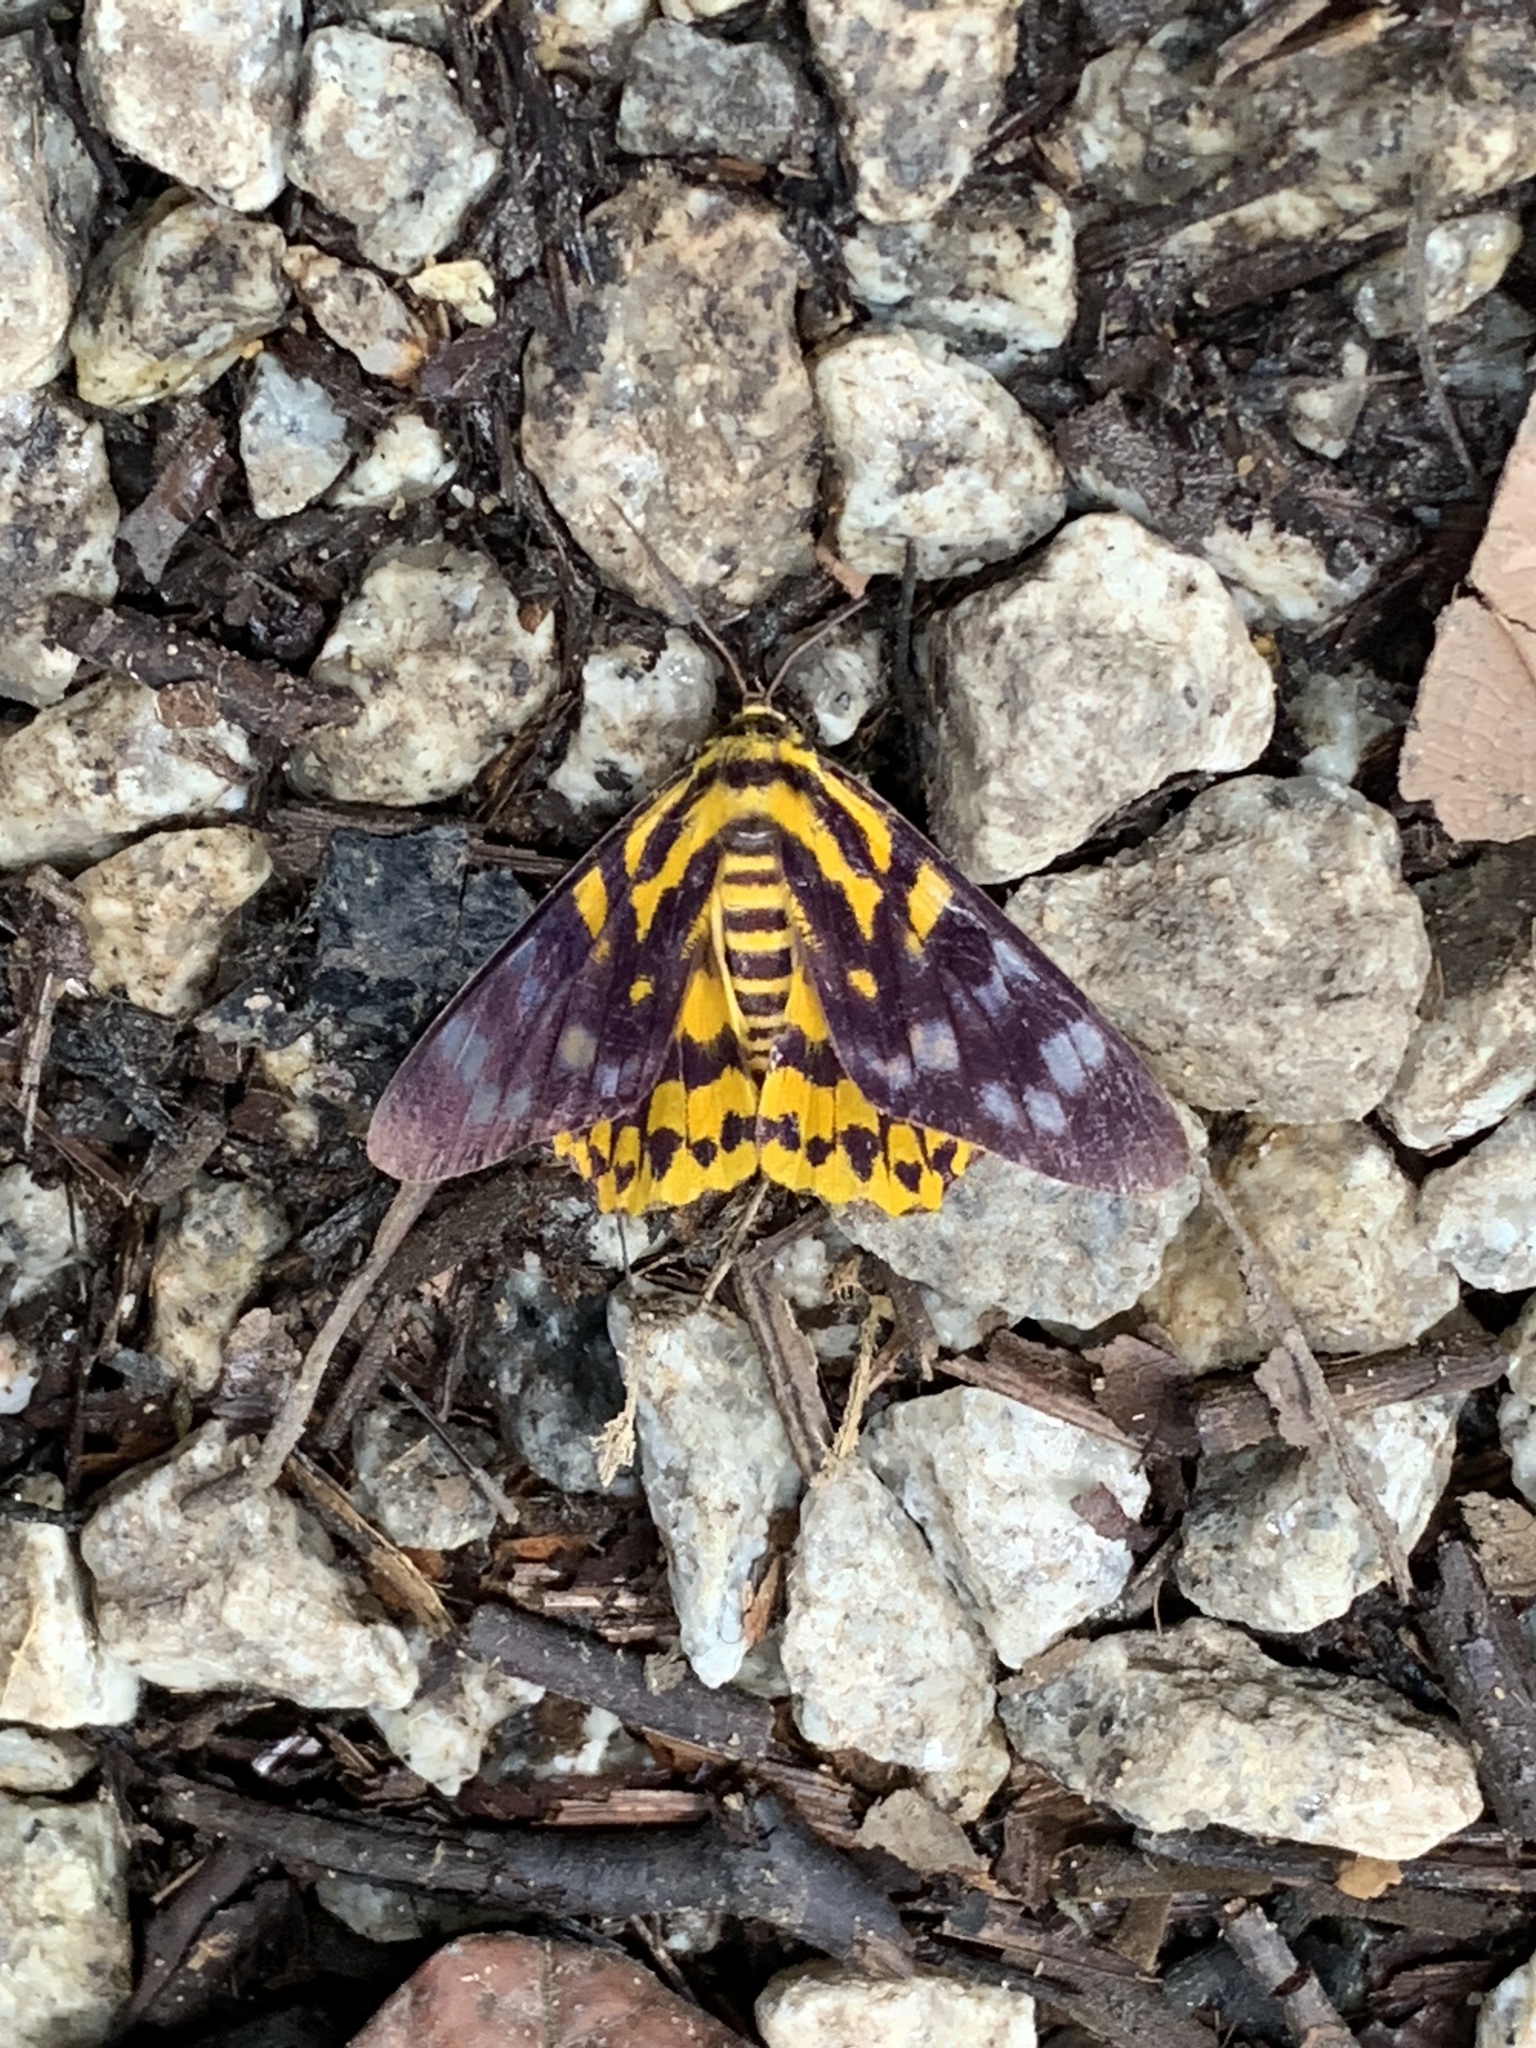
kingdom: Animalia
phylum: Arthropoda
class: Insecta
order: Lepidoptera
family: Geometridae
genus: Dysphania
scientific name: Dysphania subrepleta
